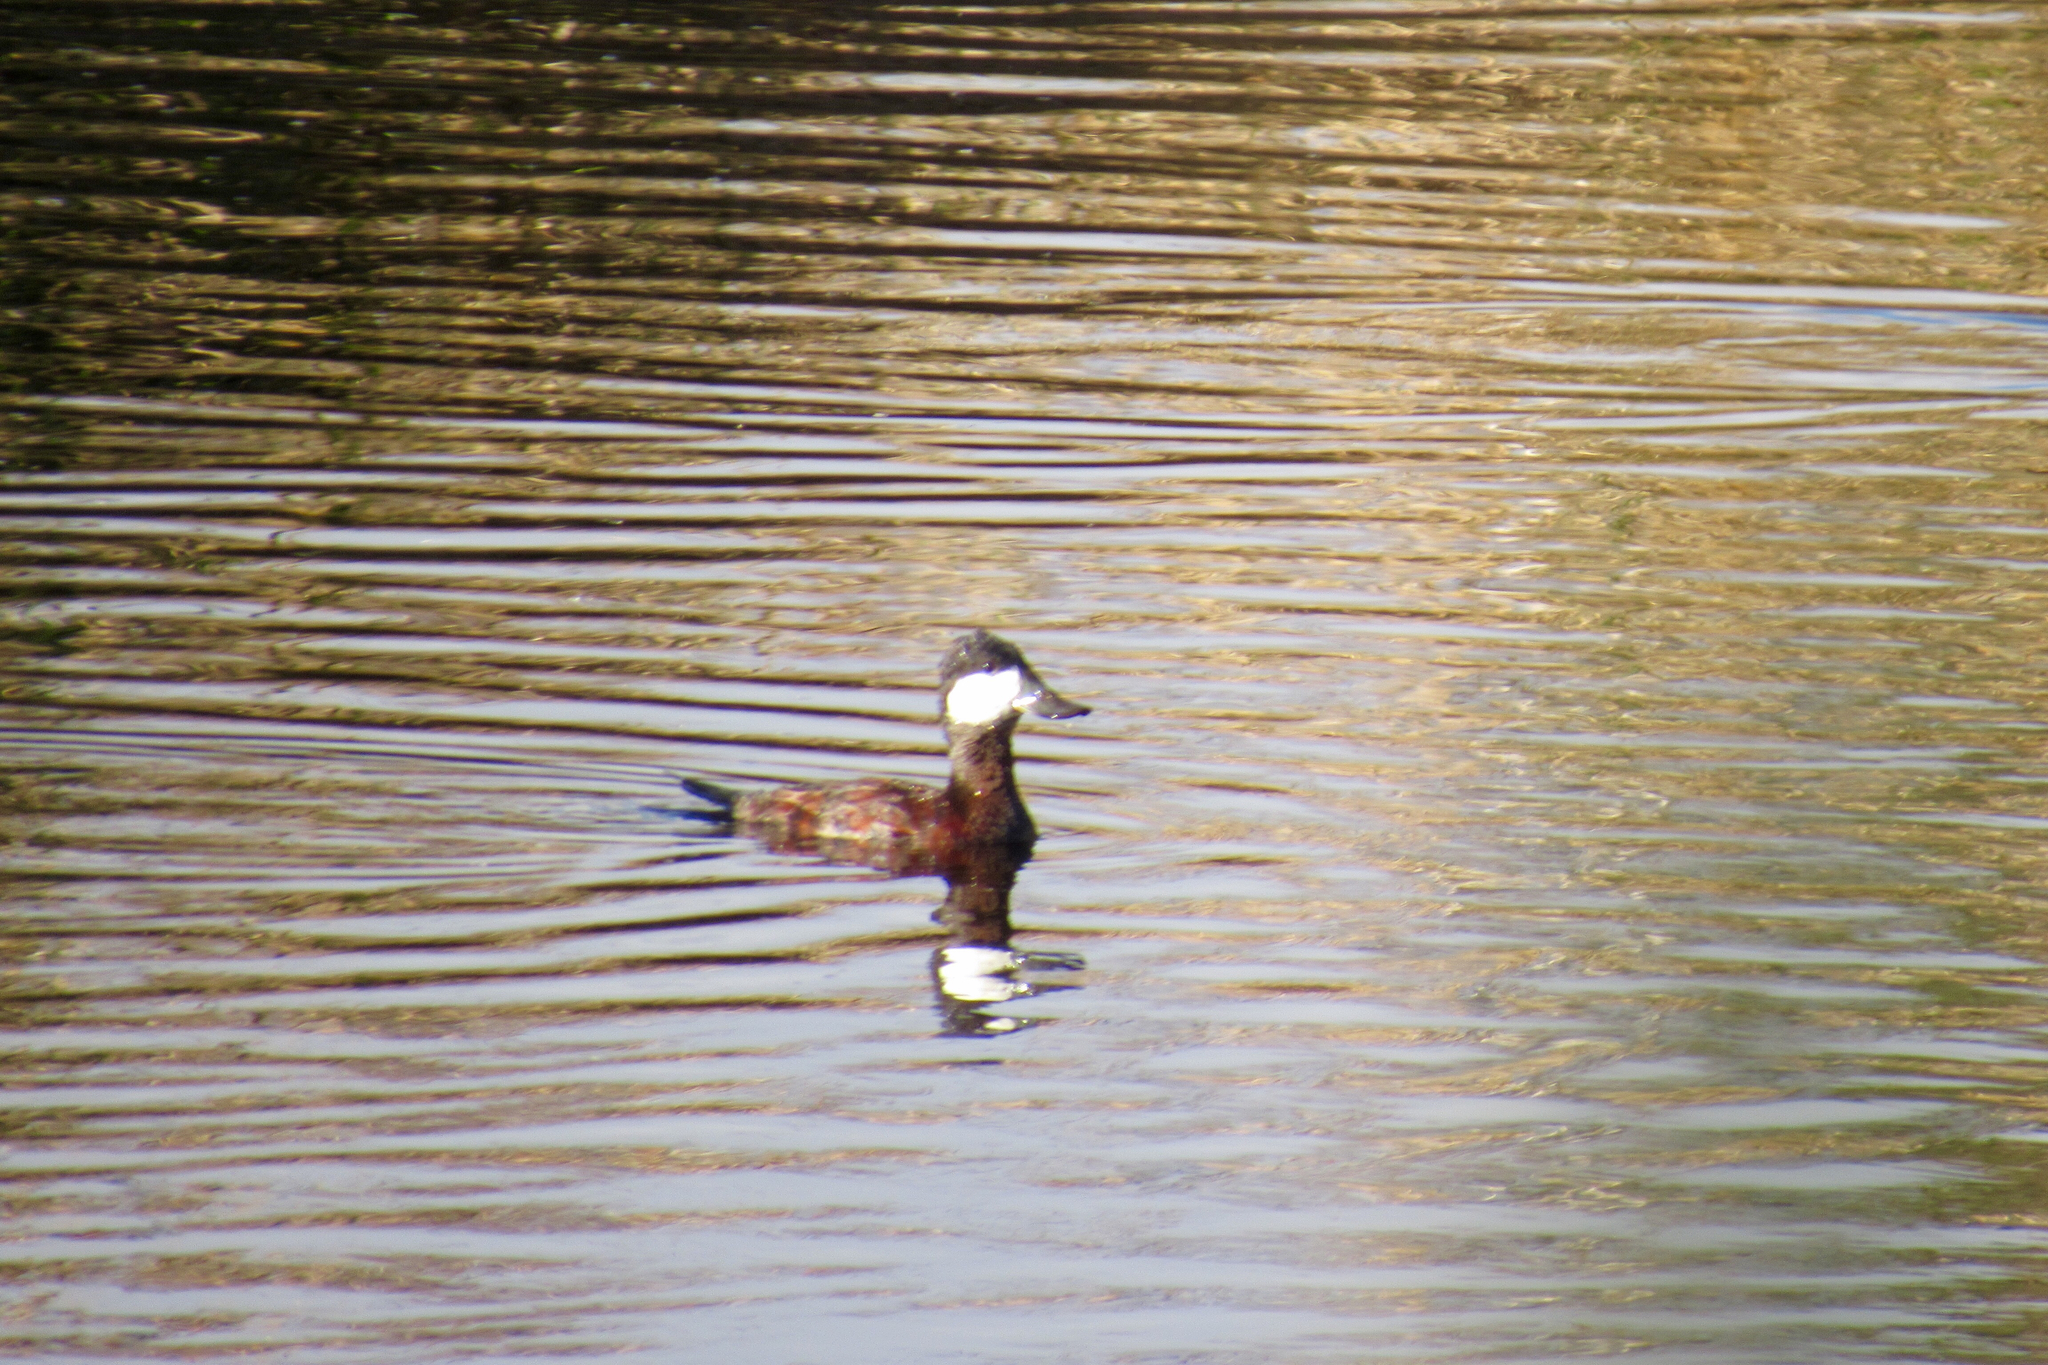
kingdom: Animalia
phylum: Chordata
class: Aves
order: Anseriformes
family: Anatidae
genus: Oxyura
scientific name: Oxyura jamaicensis
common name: Ruddy duck
